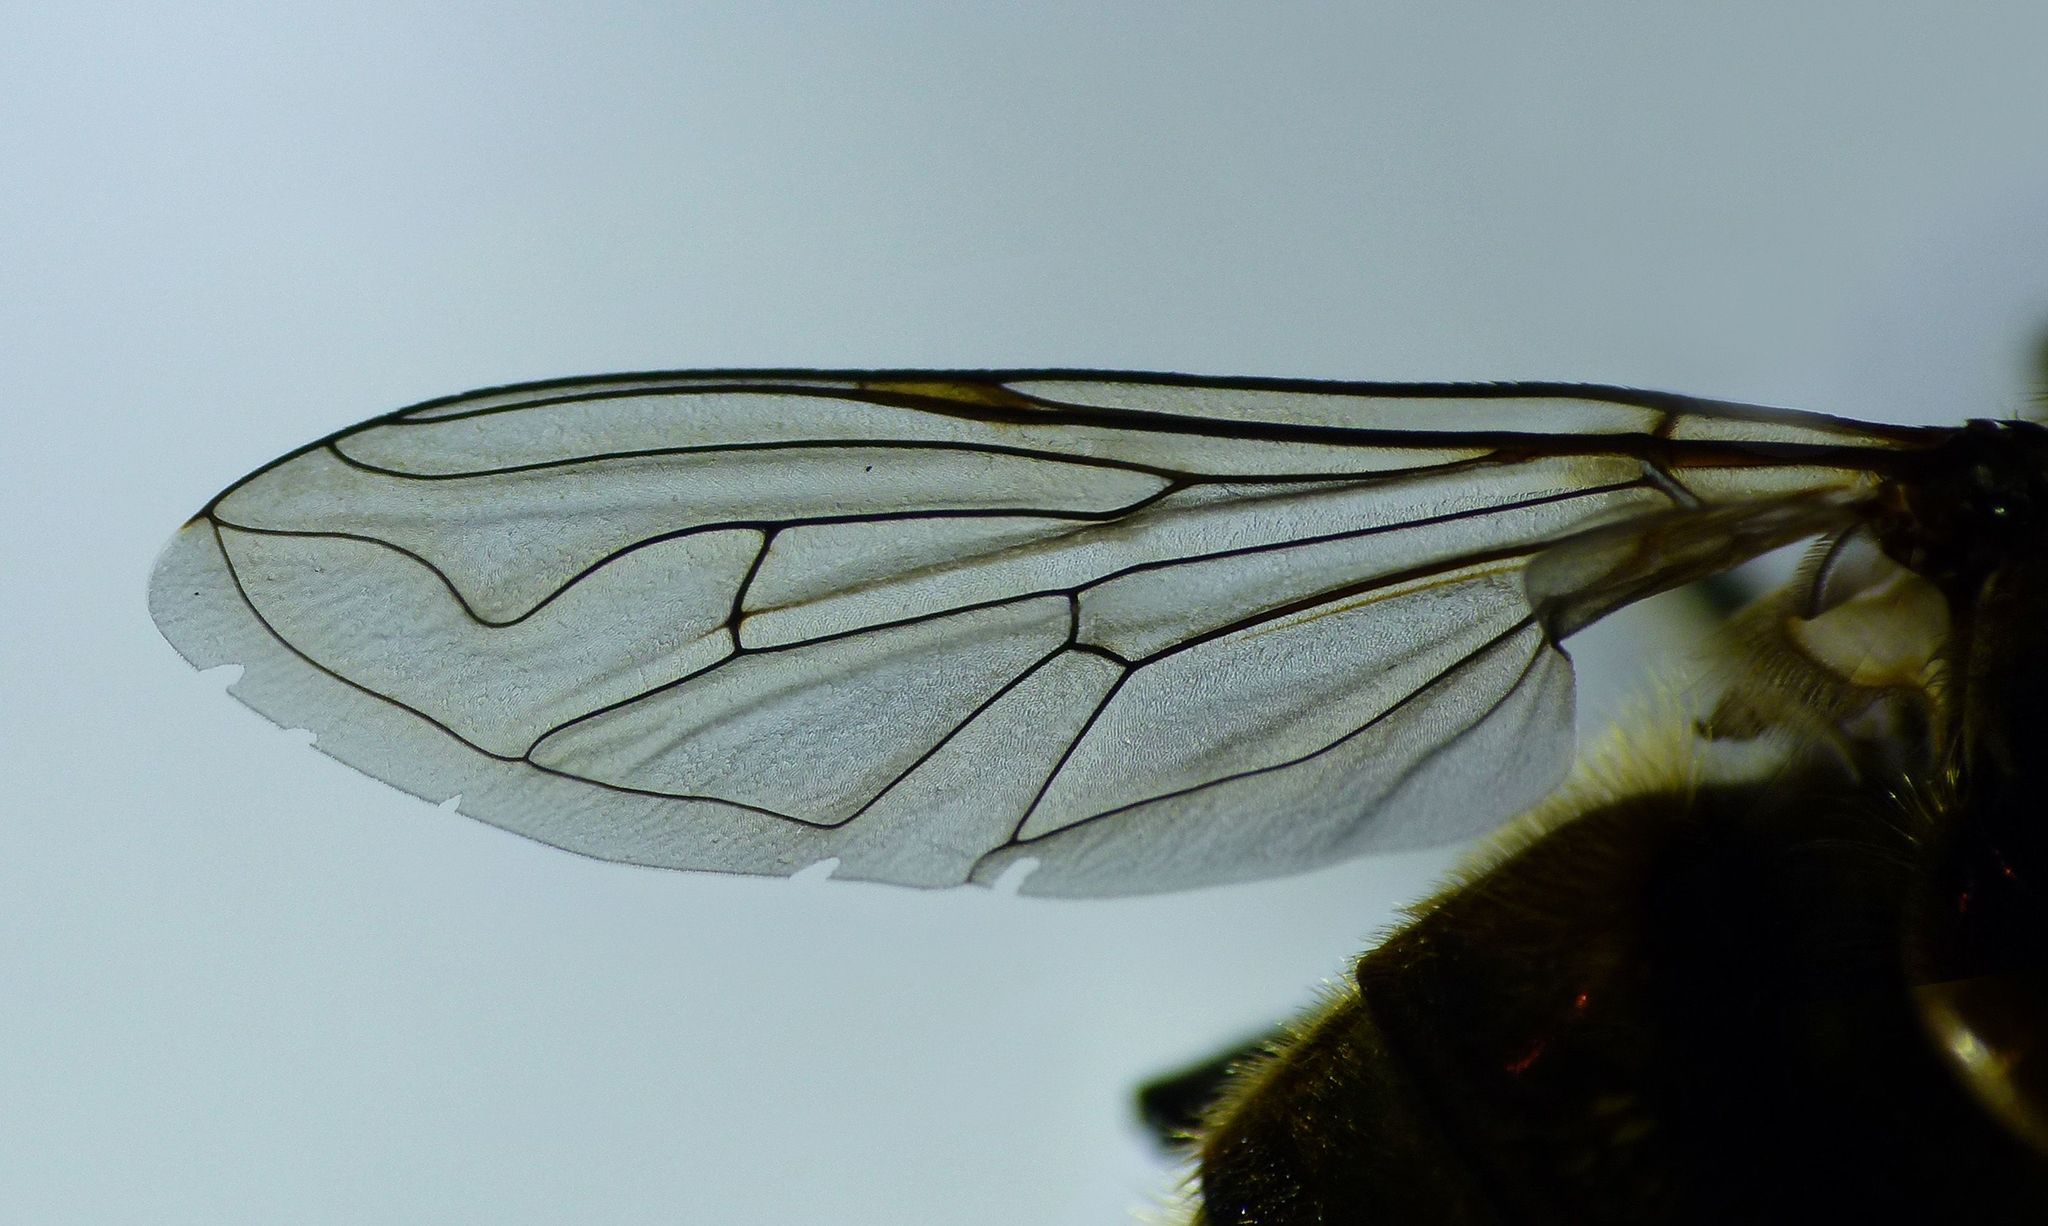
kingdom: Animalia
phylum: Arthropoda
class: Insecta
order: Diptera
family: Syrphidae
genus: Helophilus
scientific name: Helophilus ineptus
